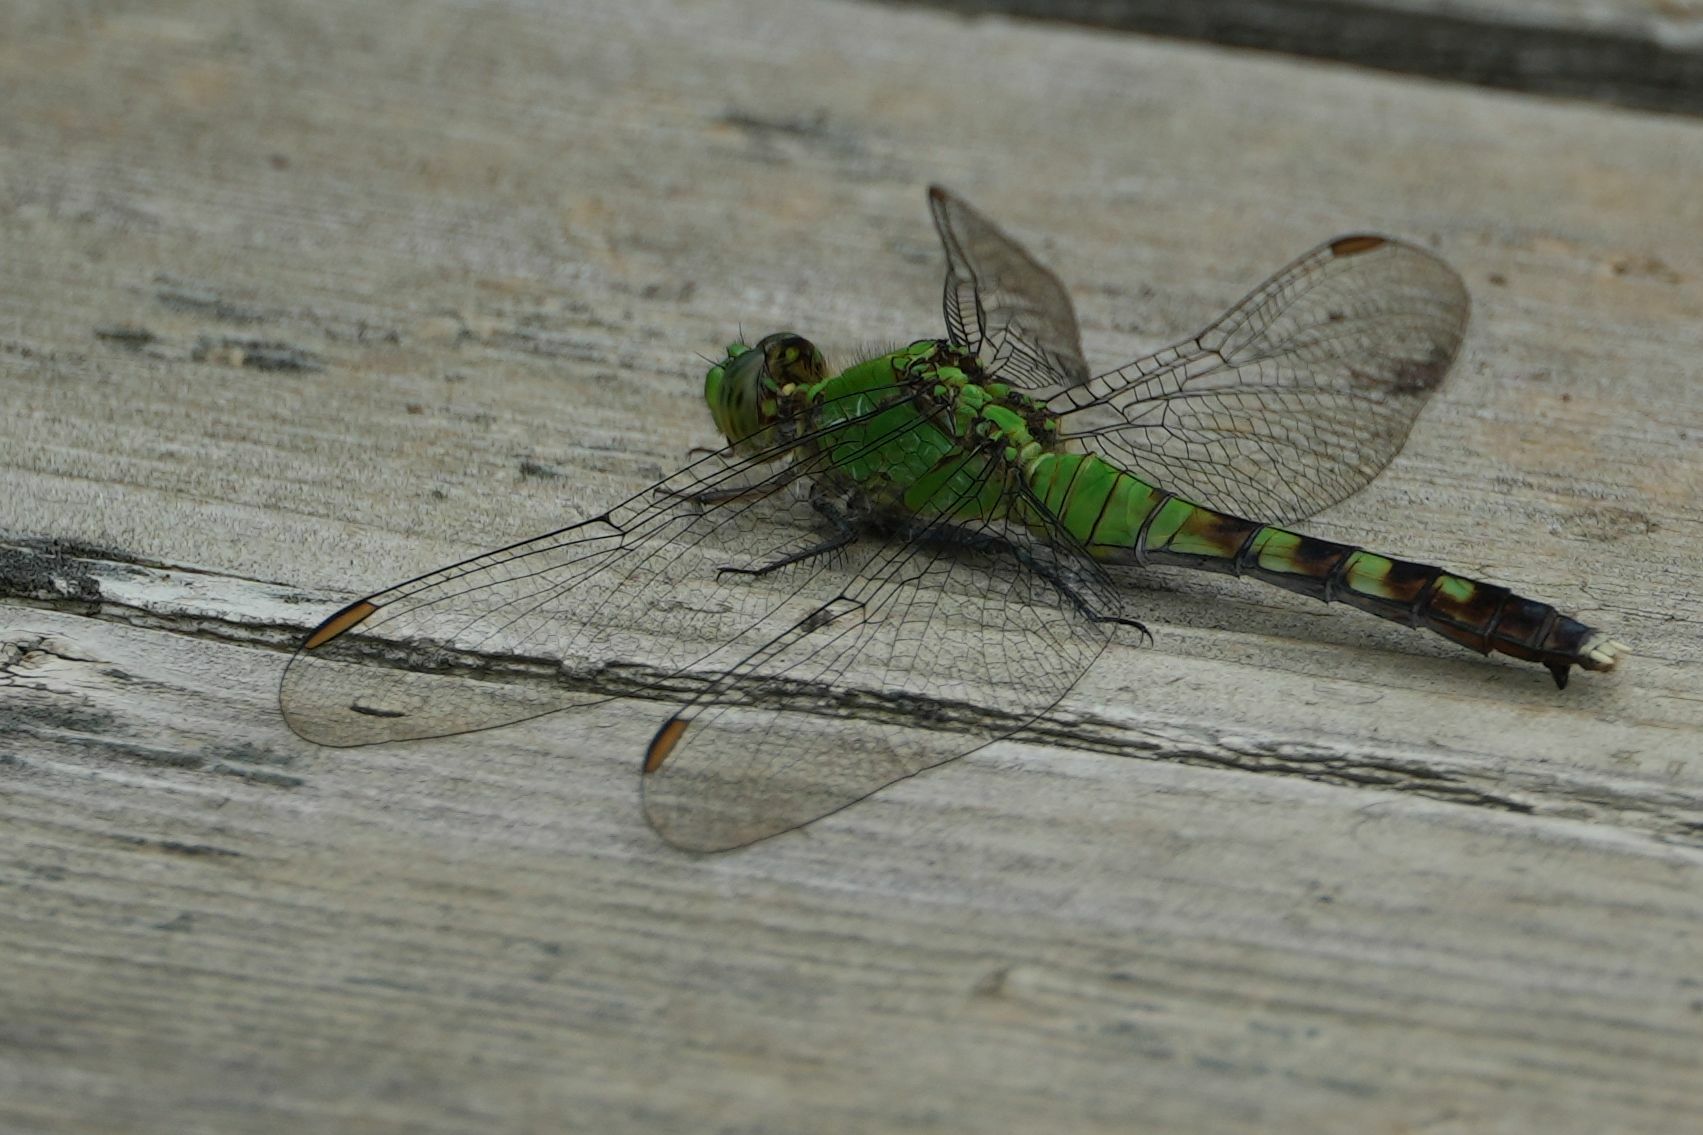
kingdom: Animalia
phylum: Arthropoda
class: Insecta
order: Odonata
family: Libellulidae
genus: Erythemis
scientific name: Erythemis simplicicollis
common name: Eastern pondhawk
